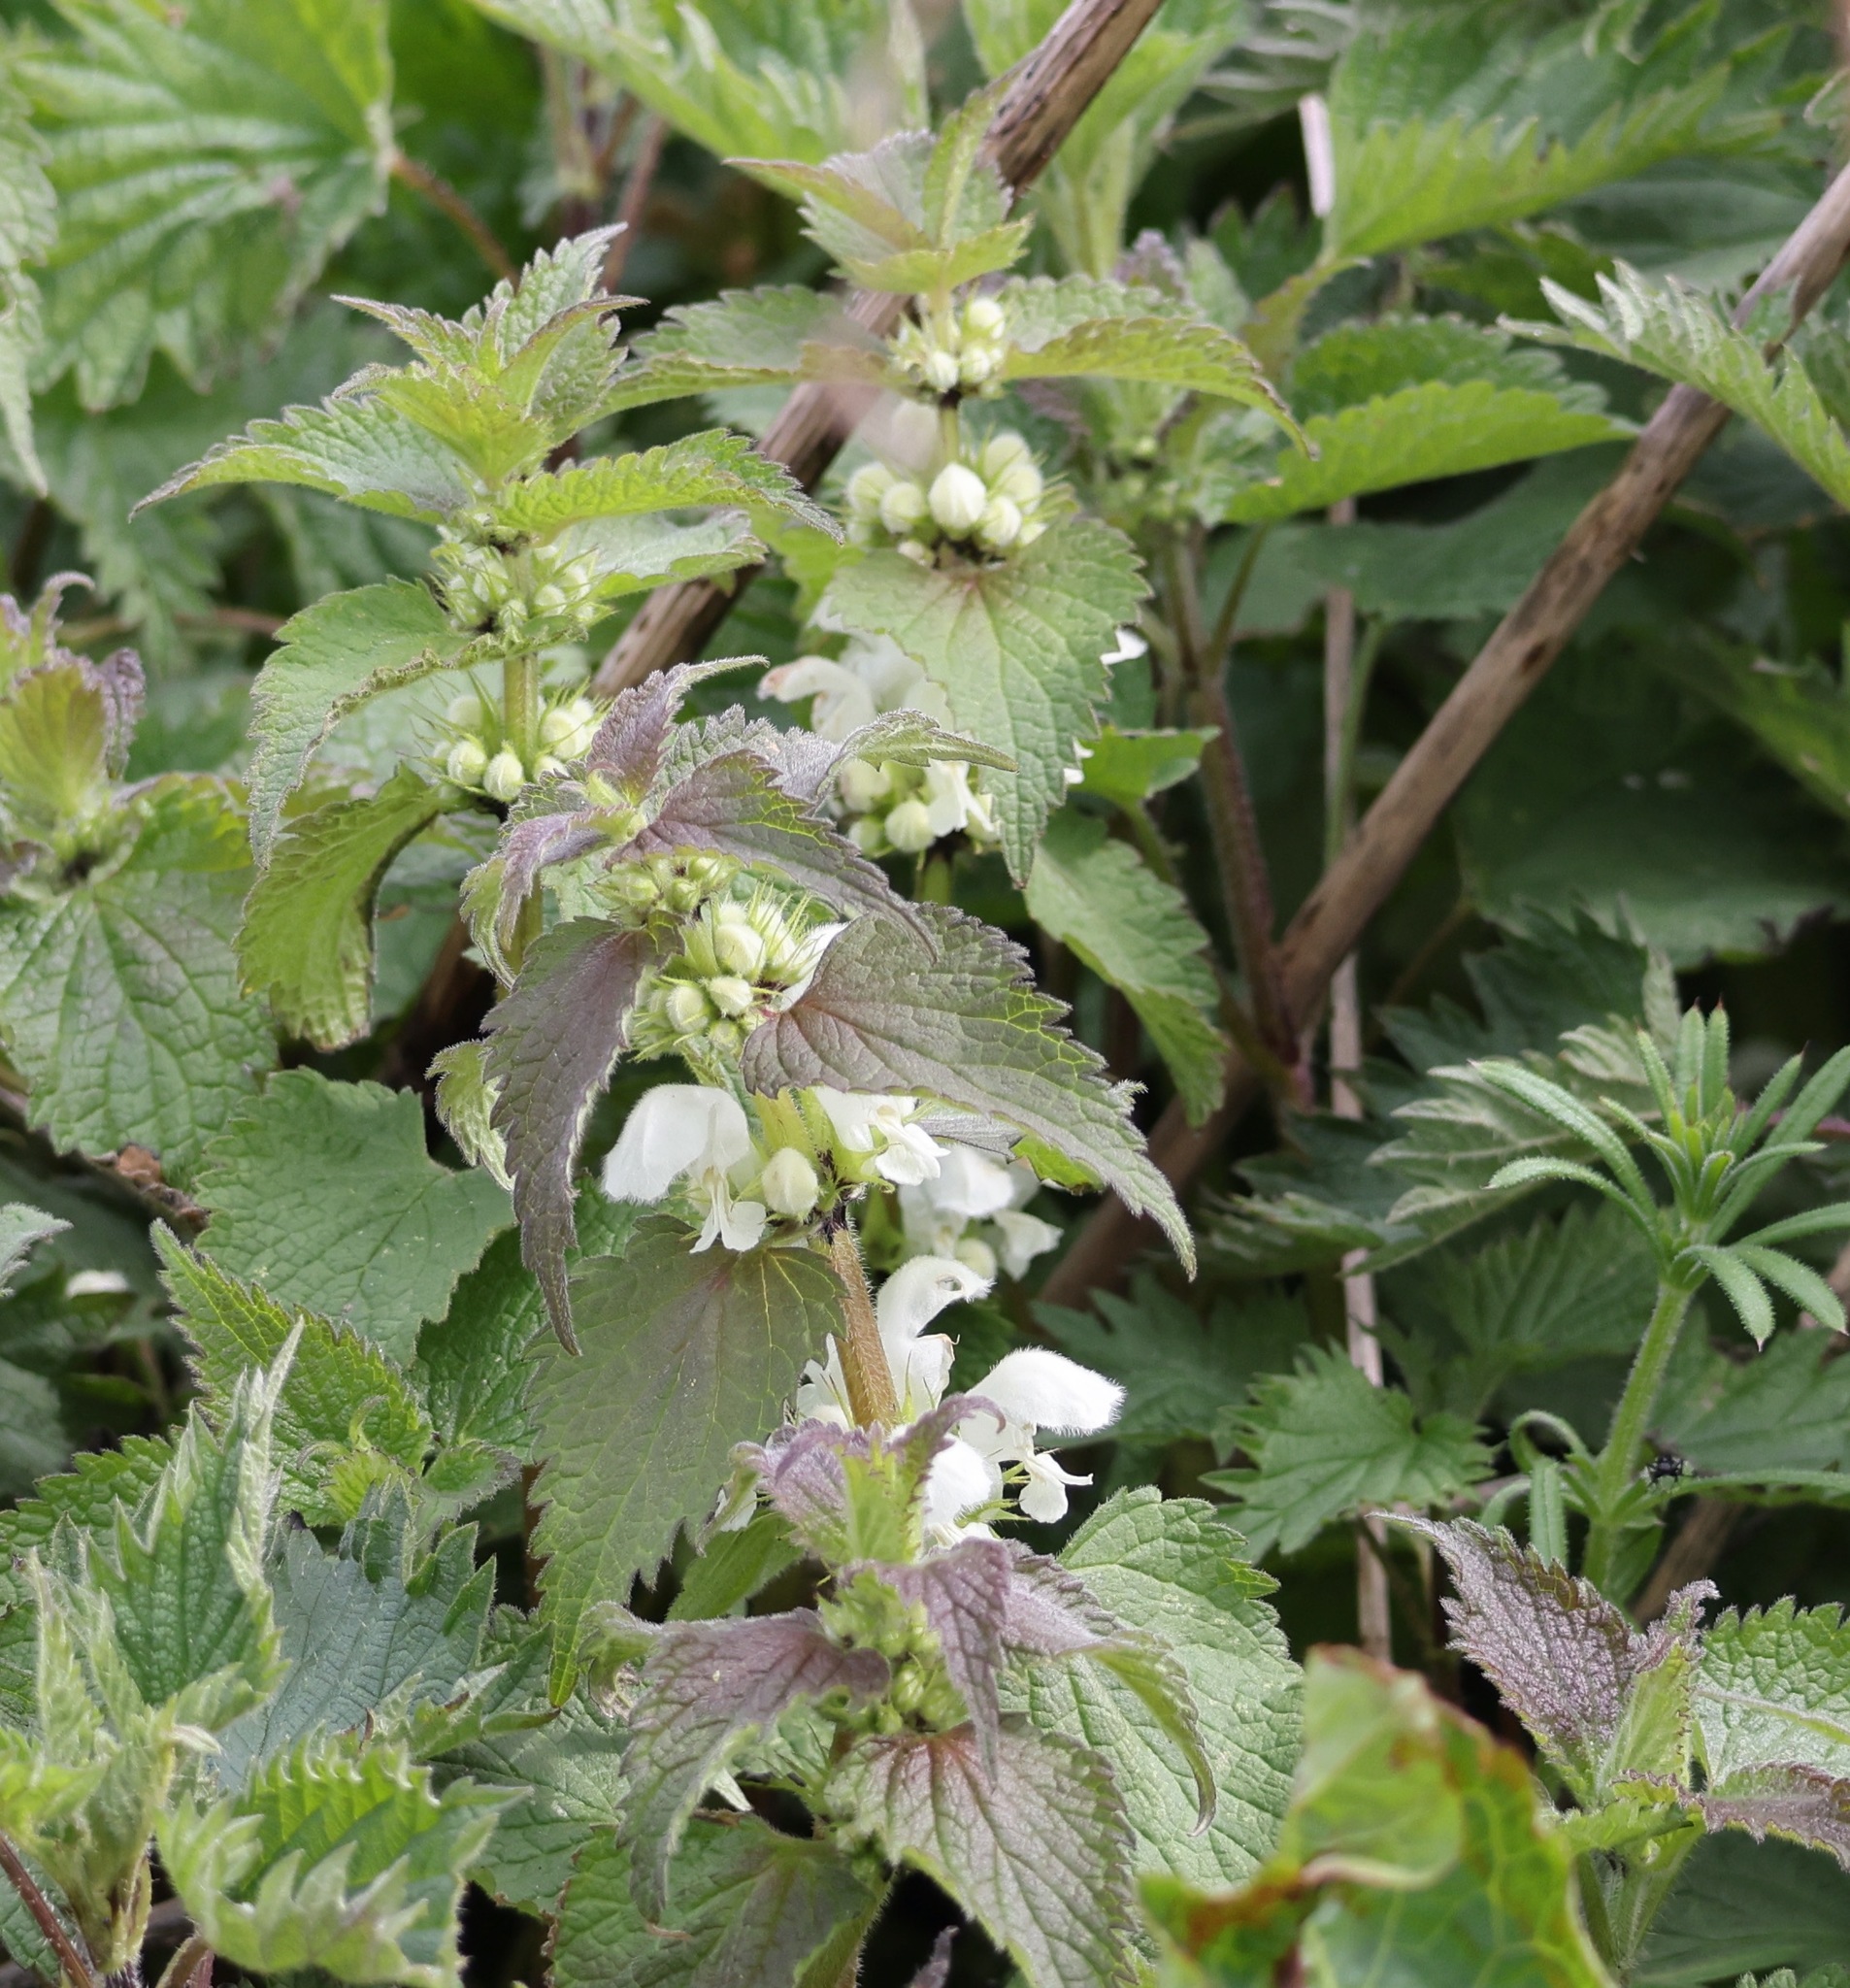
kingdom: Plantae
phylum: Tracheophyta
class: Magnoliopsida
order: Lamiales
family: Lamiaceae
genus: Lamium
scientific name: Lamium album
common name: White dead-nettle
